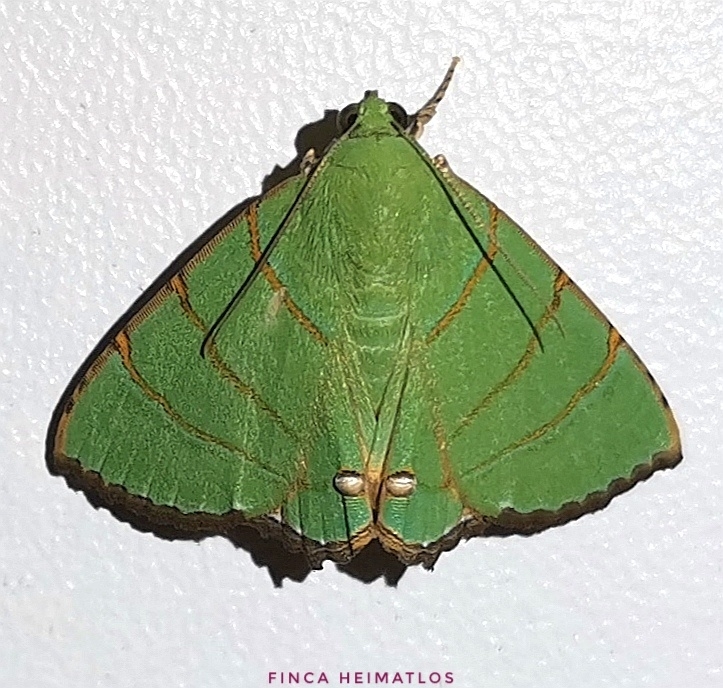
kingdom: Animalia
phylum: Arthropoda
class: Insecta
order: Lepidoptera
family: Erebidae
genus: Eulepidotis
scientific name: Eulepidotis viridissima
